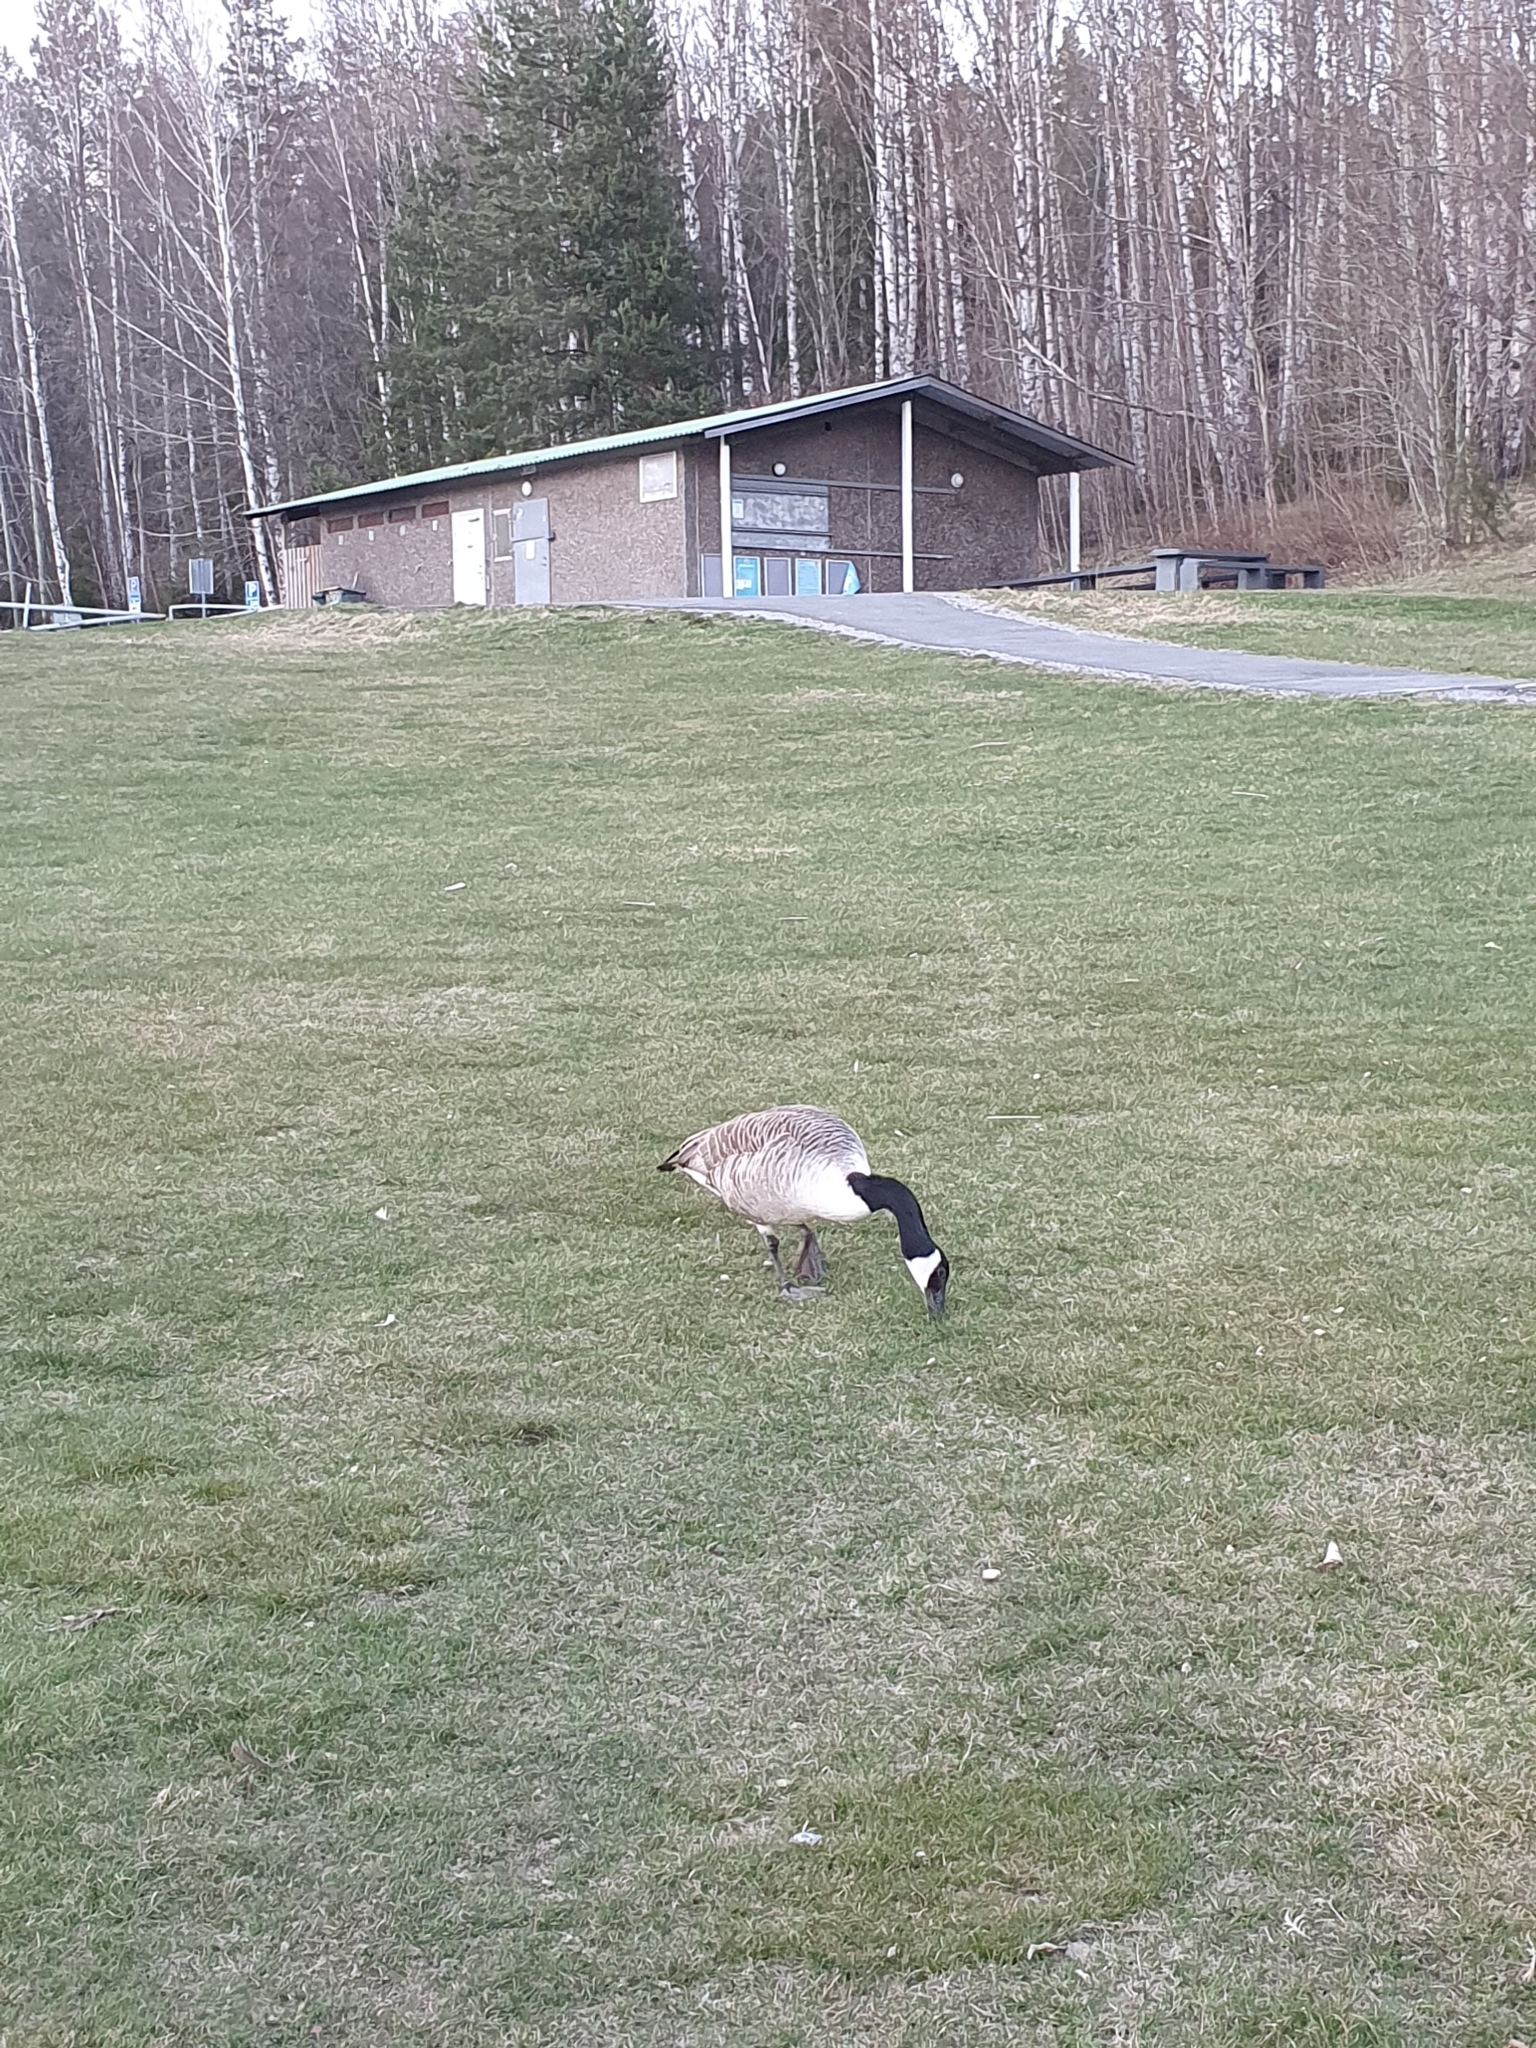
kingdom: Animalia
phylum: Chordata
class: Aves
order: Anseriformes
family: Anatidae
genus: Branta
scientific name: Branta canadensis
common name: Canada goose
